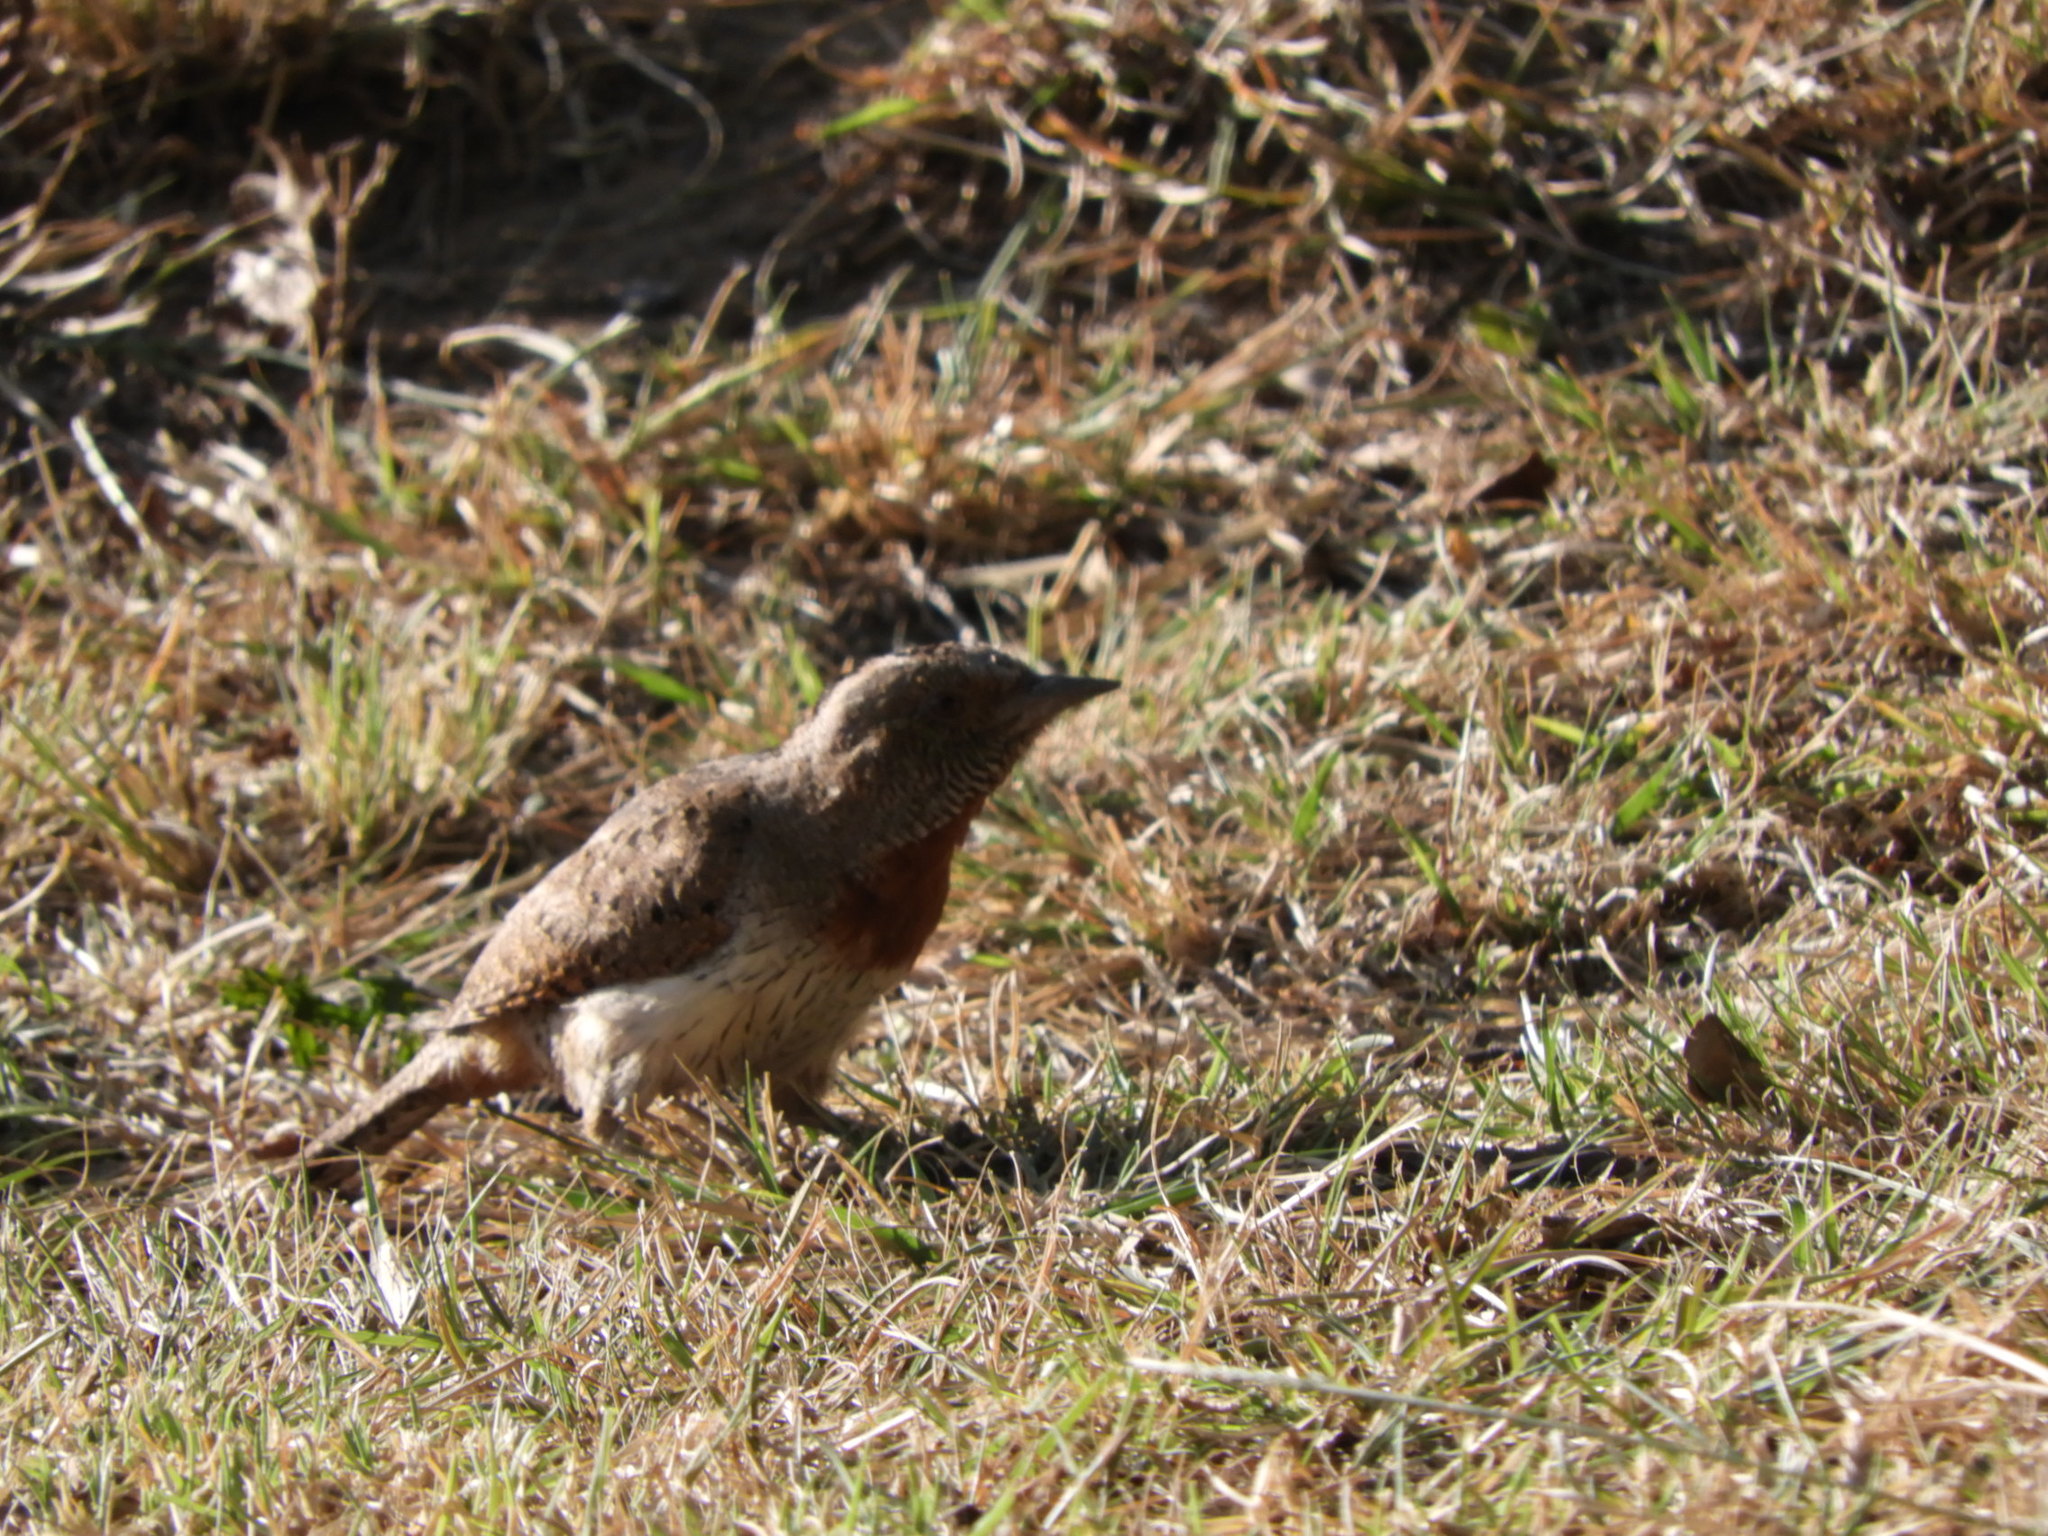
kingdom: Animalia
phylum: Chordata
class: Aves
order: Piciformes
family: Picidae
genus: Jynx
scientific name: Jynx ruficollis
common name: Red-throated wryneck
